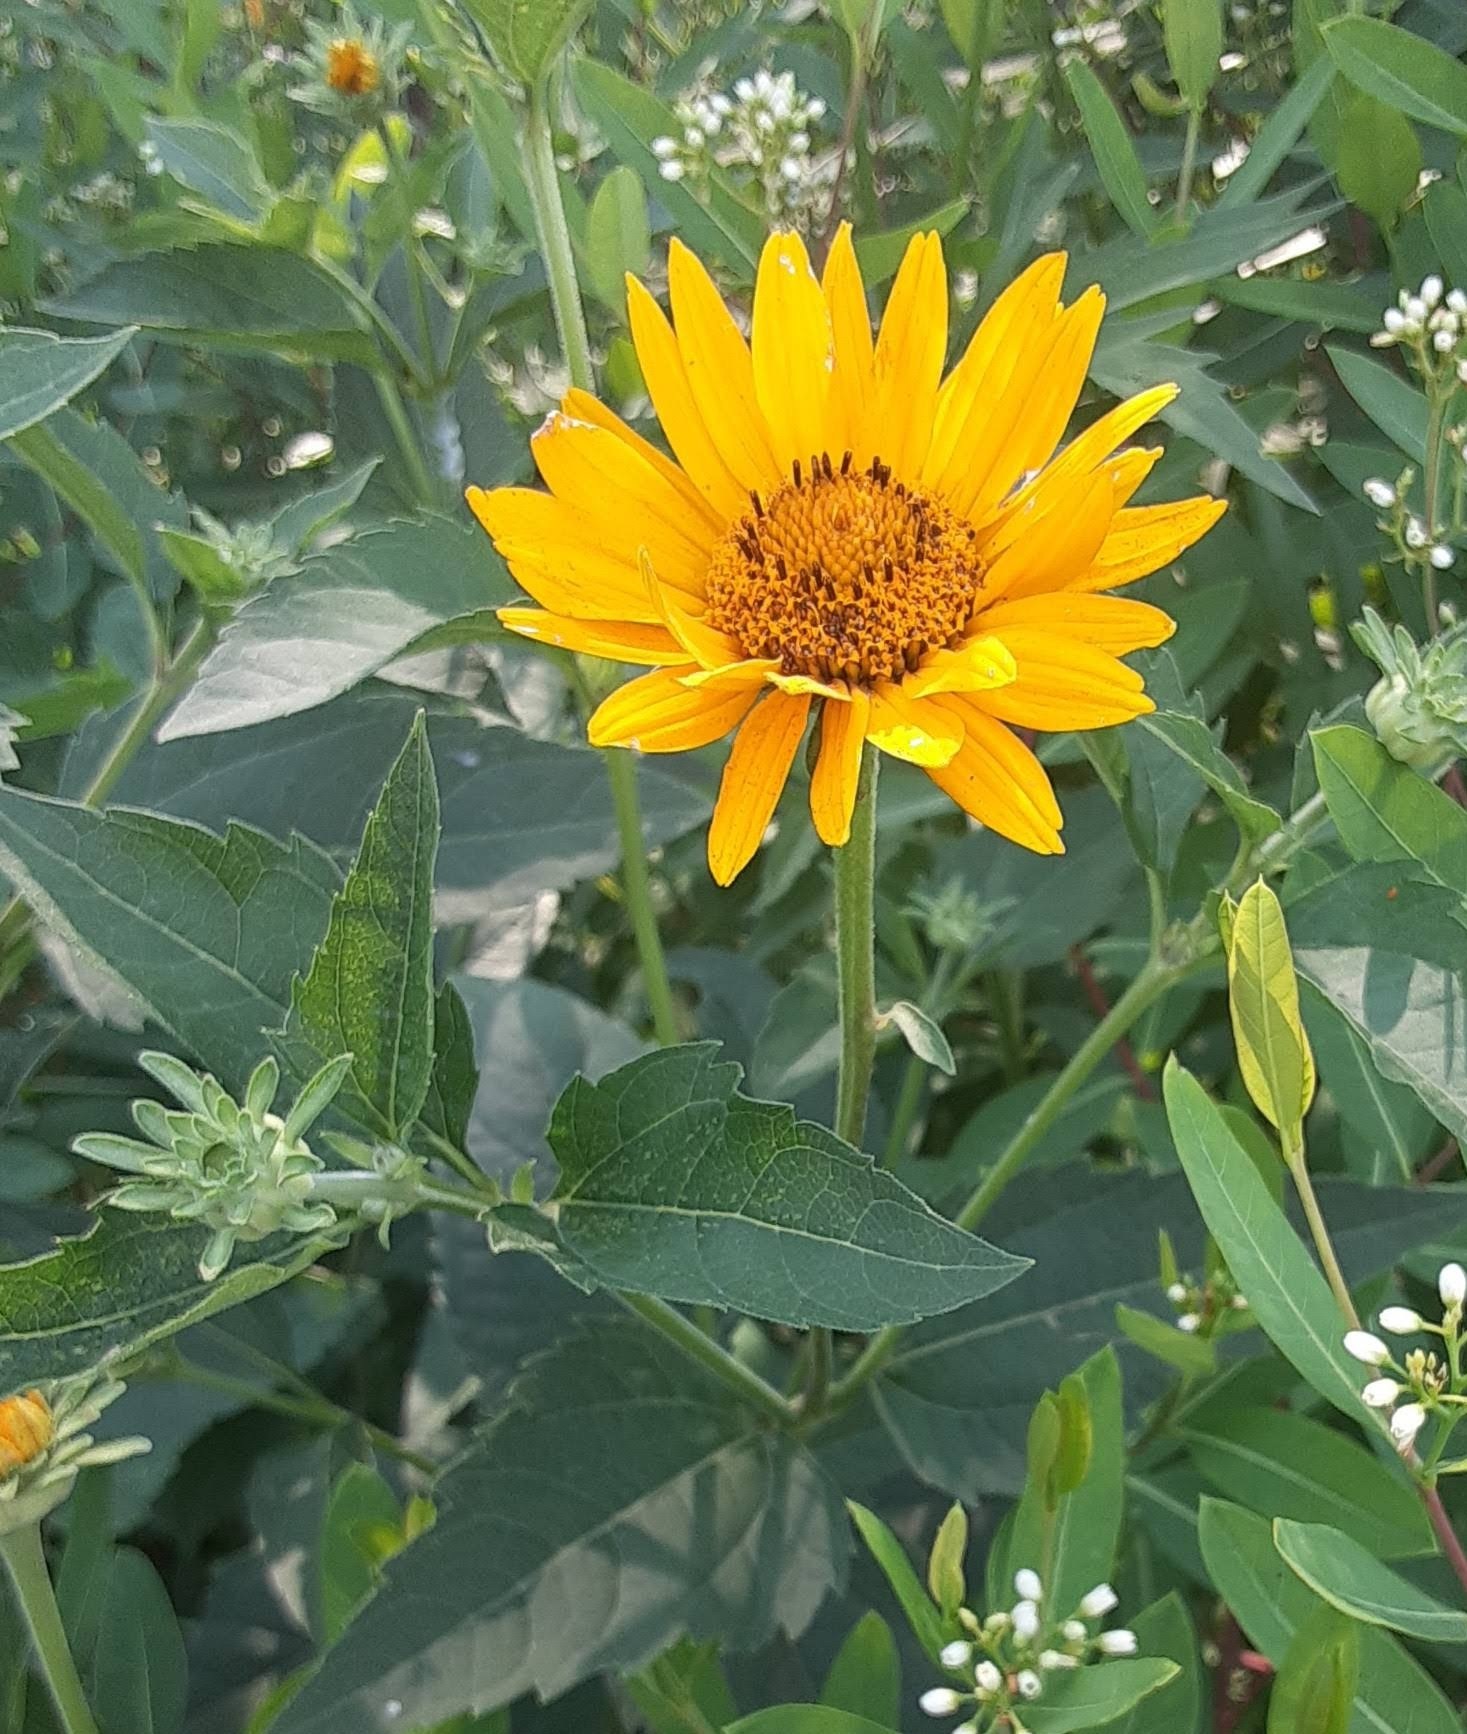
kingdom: Plantae
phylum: Tracheophyta
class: Magnoliopsida
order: Asterales
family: Asteraceae
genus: Heliopsis
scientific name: Heliopsis helianthoides
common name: False sunflower
